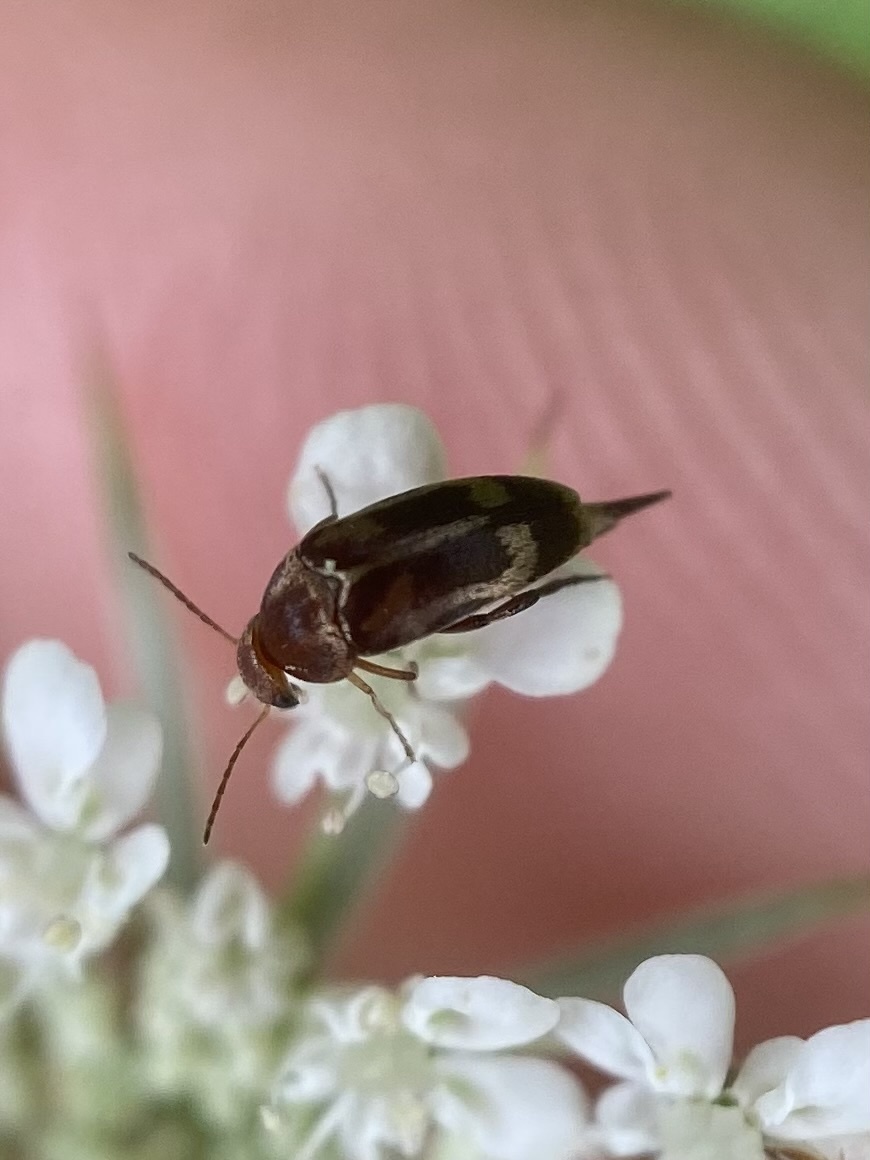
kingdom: Animalia
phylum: Arthropoda
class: Insecta
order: Coleoptera
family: Mordellidae
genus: Falsomordellistena
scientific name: Falsomordellistena hebraica
